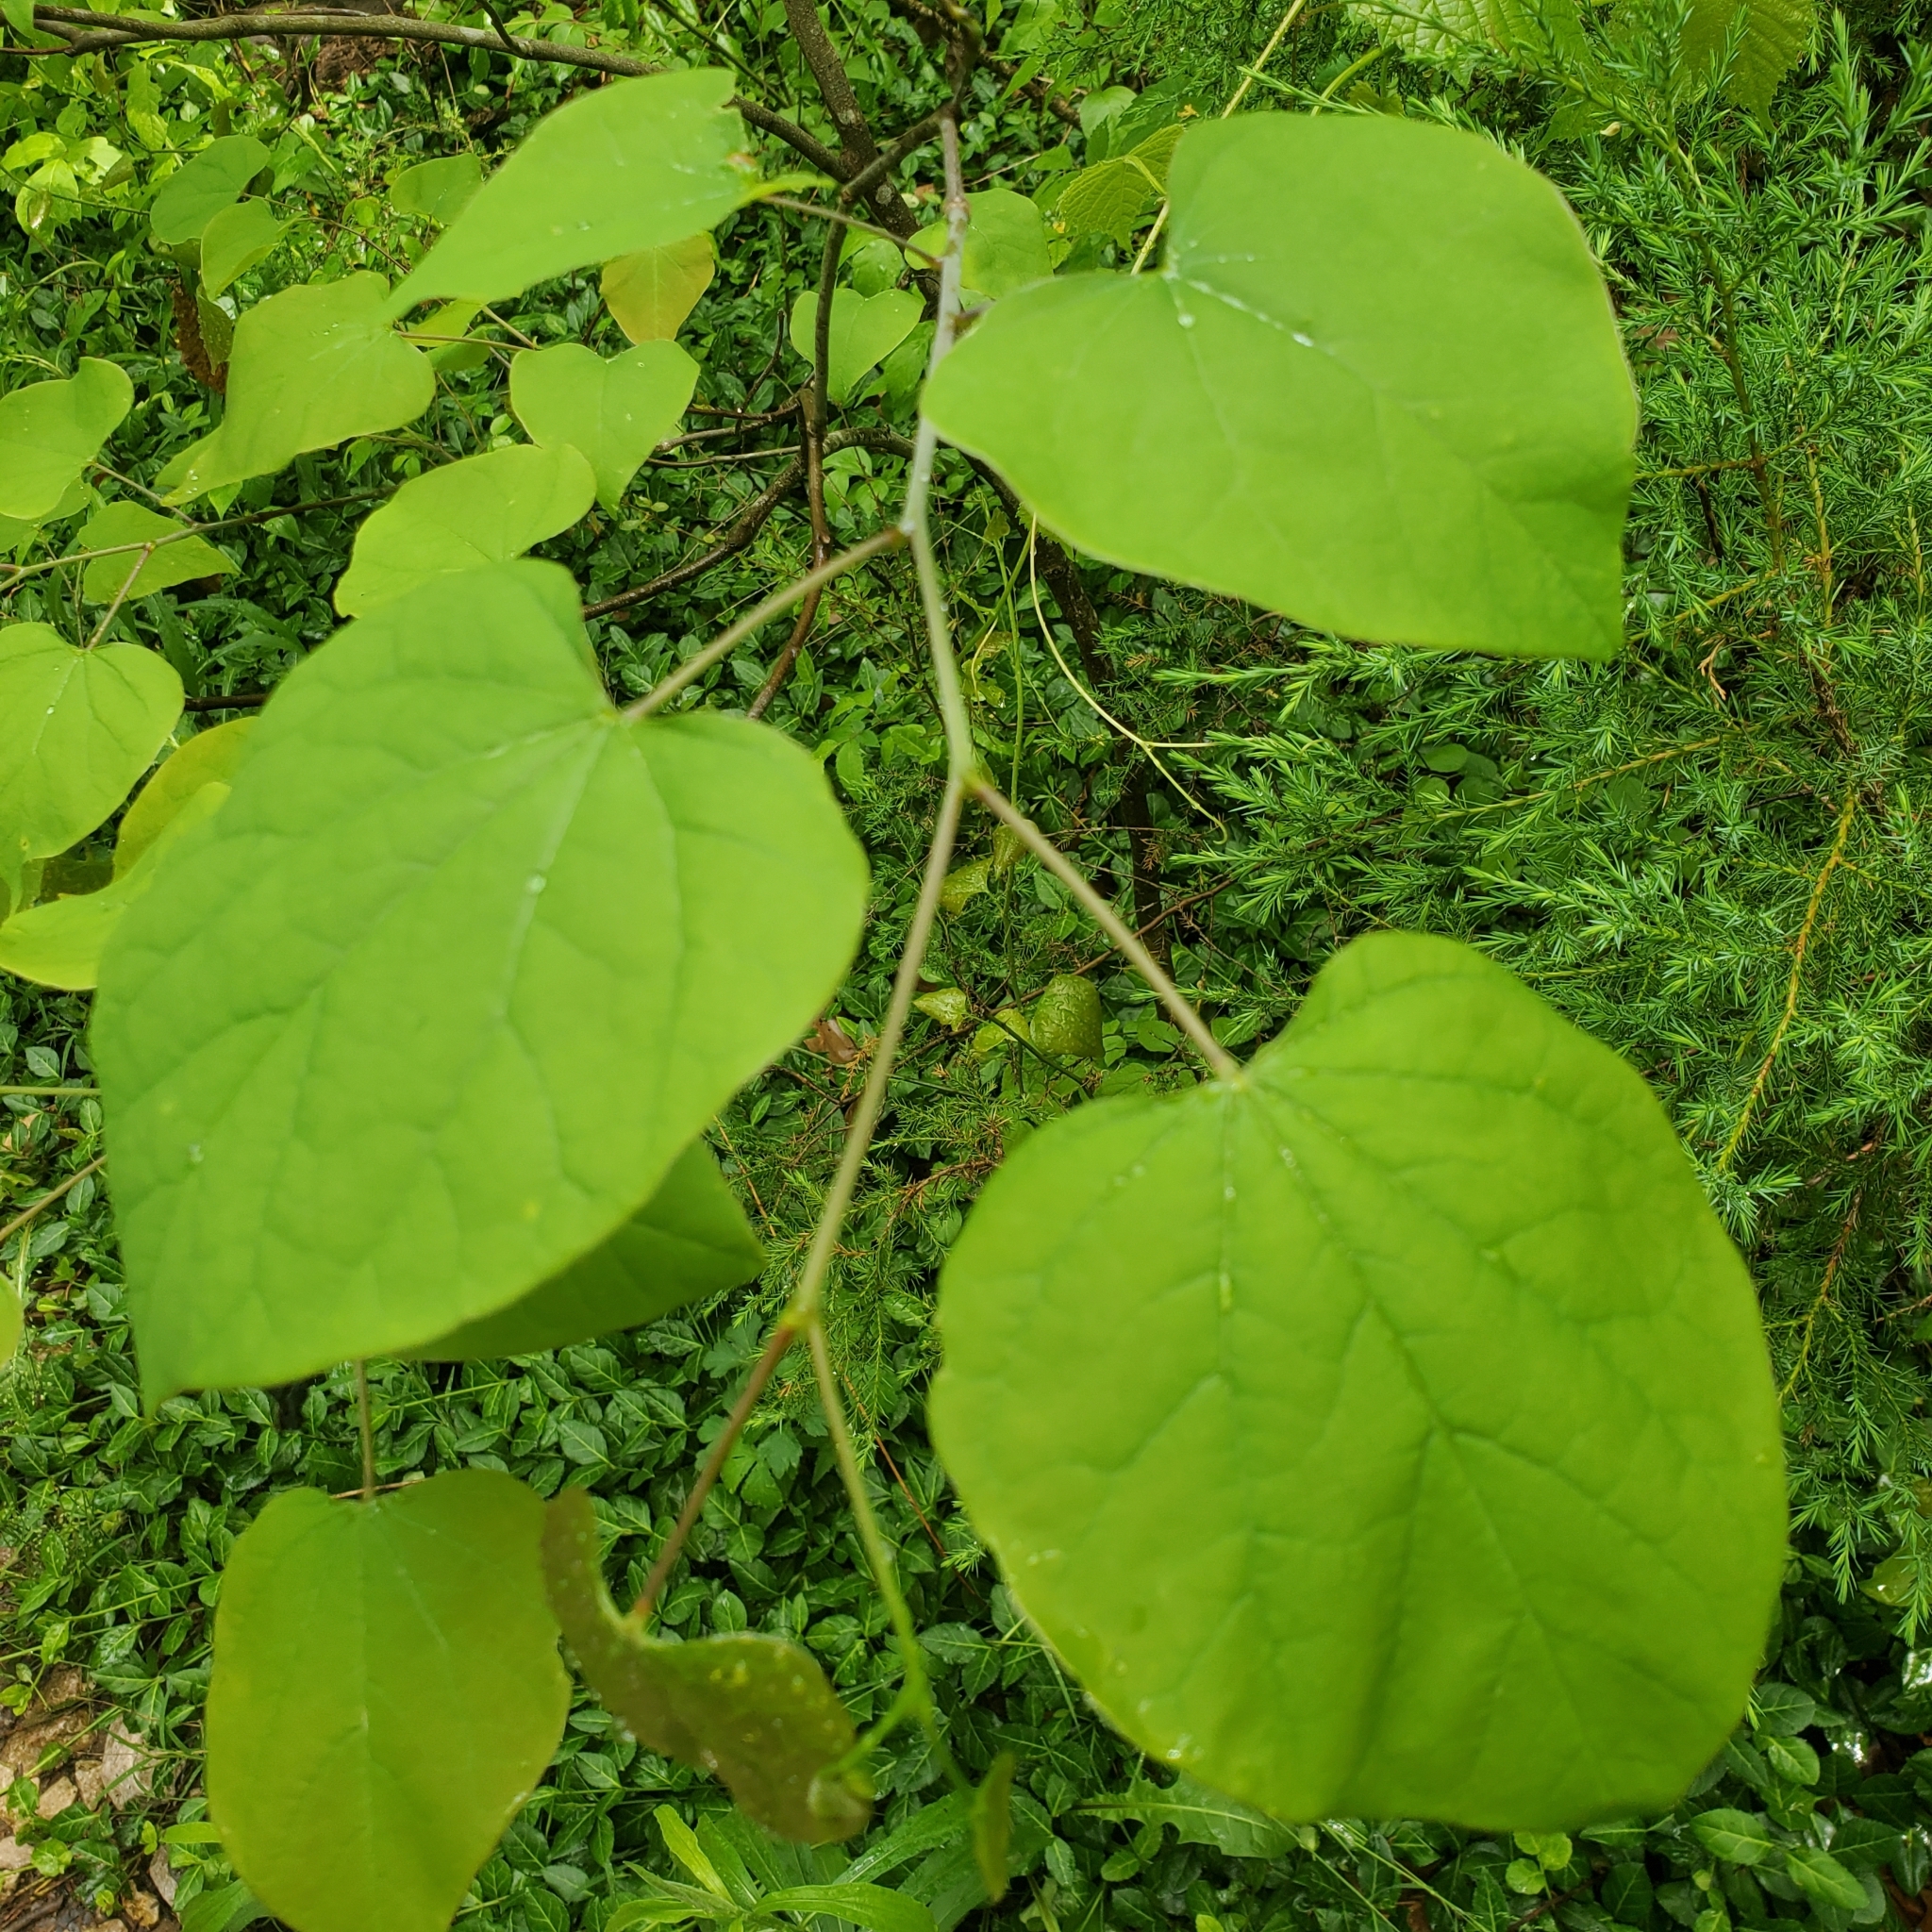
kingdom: Plantae
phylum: Tracheophyta
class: Magnoliopsida
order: Fabales
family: Fabaceae
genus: Cercis
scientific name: Cercis canadensis
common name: Eastern redbud
